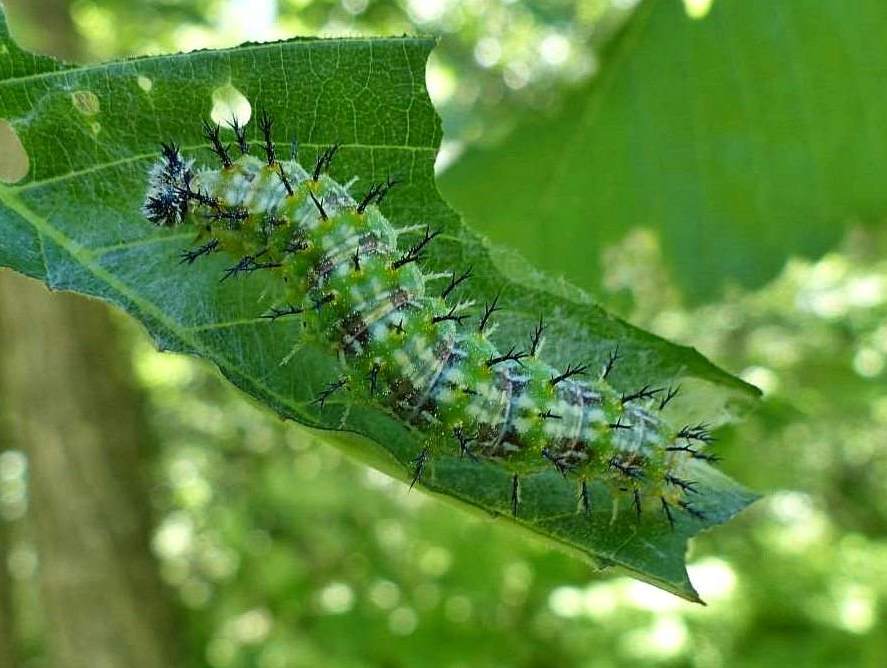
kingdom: Animalia
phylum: Arthropoda
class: Insecta
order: Lepidoptera
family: Nymphalidae
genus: Polygonia
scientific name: Polygonia vaualbum
